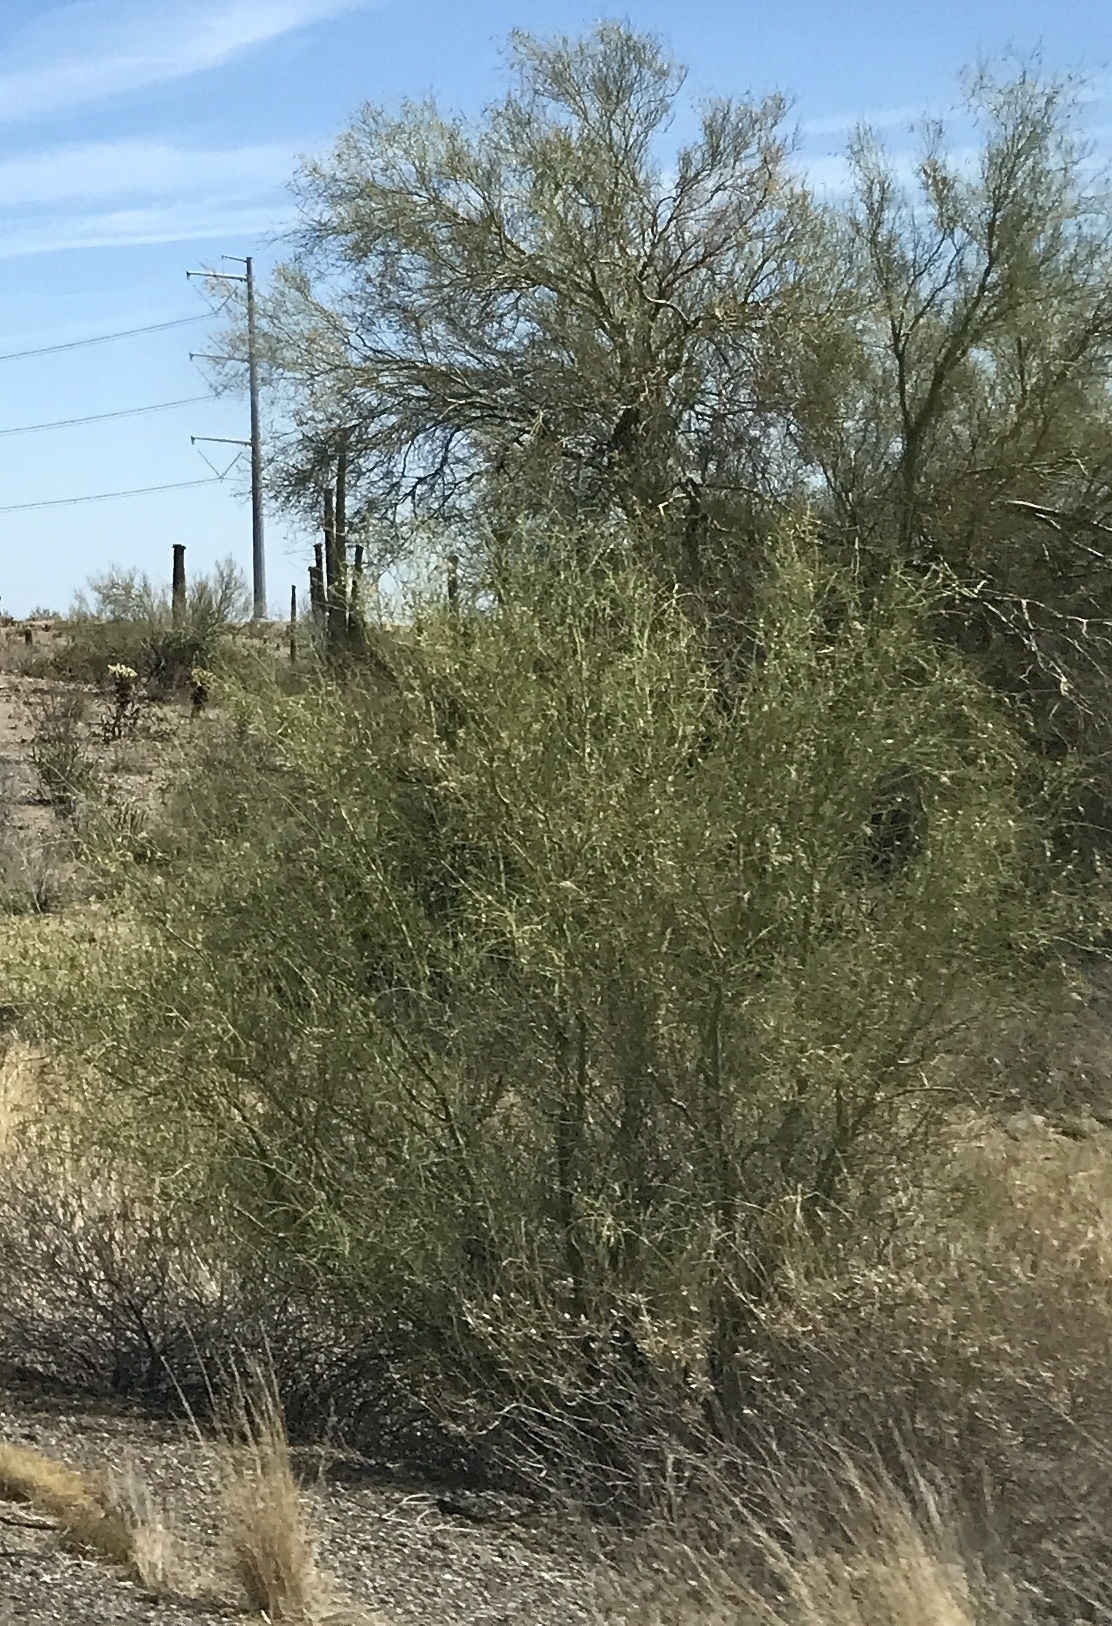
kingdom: Plantae
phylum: Tracheophyta
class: Magnoliopsida
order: Fabales
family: Fabaceae
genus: Parkinsonia
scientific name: Parkinsonia aculeata
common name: Jerusalem thorn
